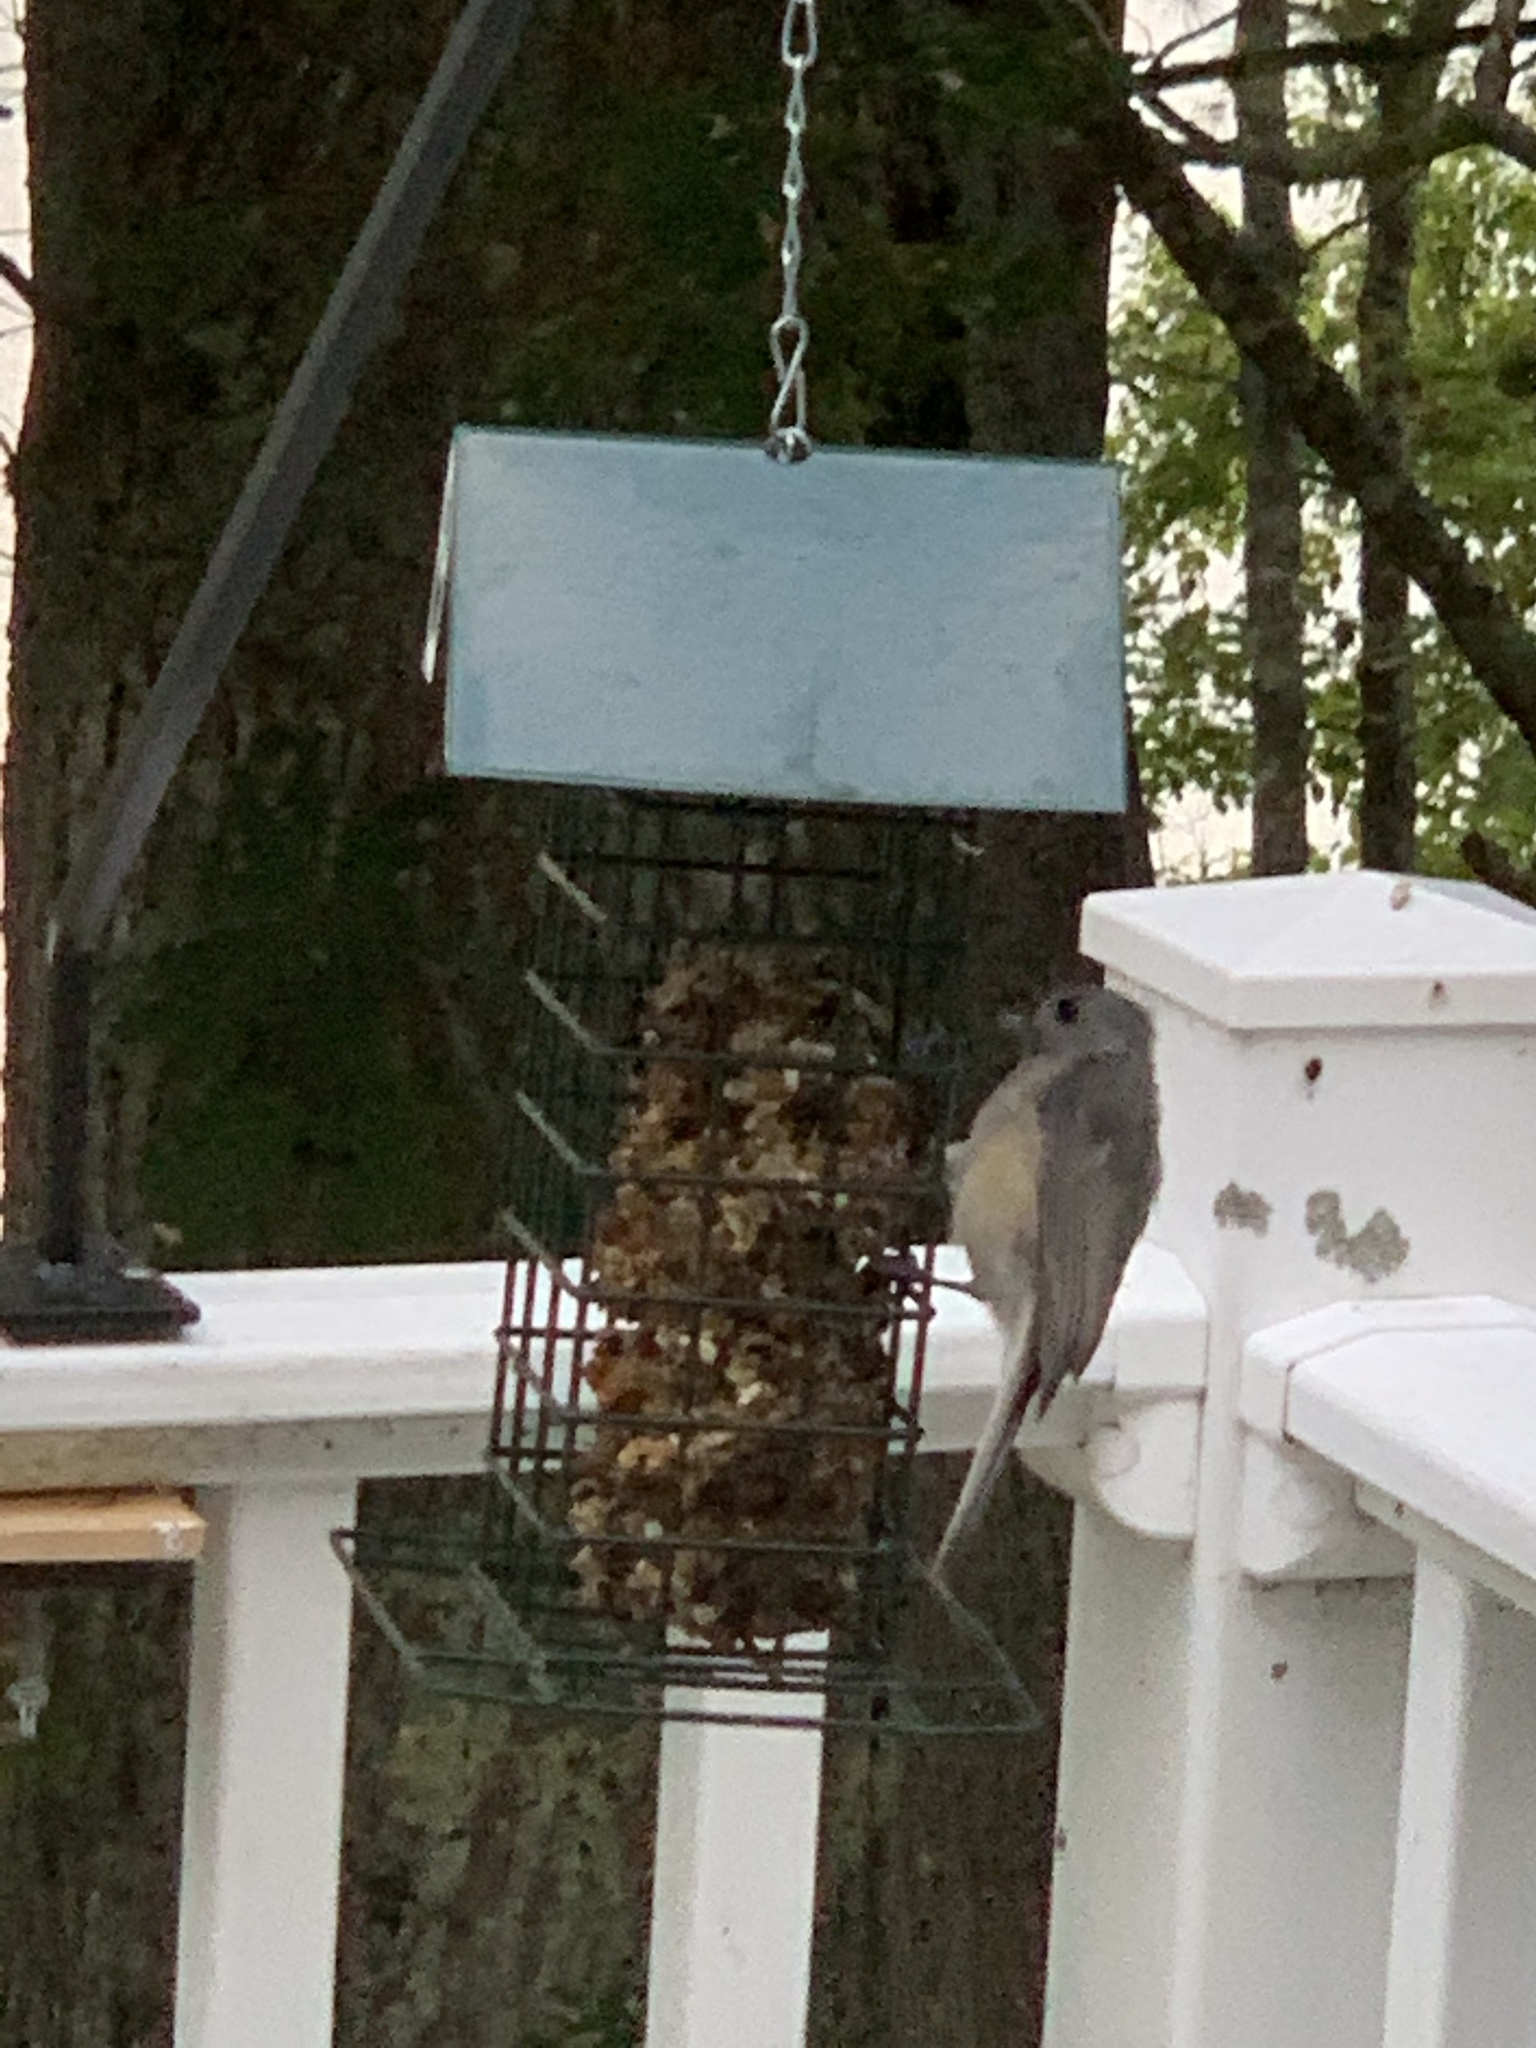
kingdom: Animalia
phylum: Chordata
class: Aves
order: Passeriformes
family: Paridae
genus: Baeolophus
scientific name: Baeolophus bicolor
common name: Tufted titmouse
